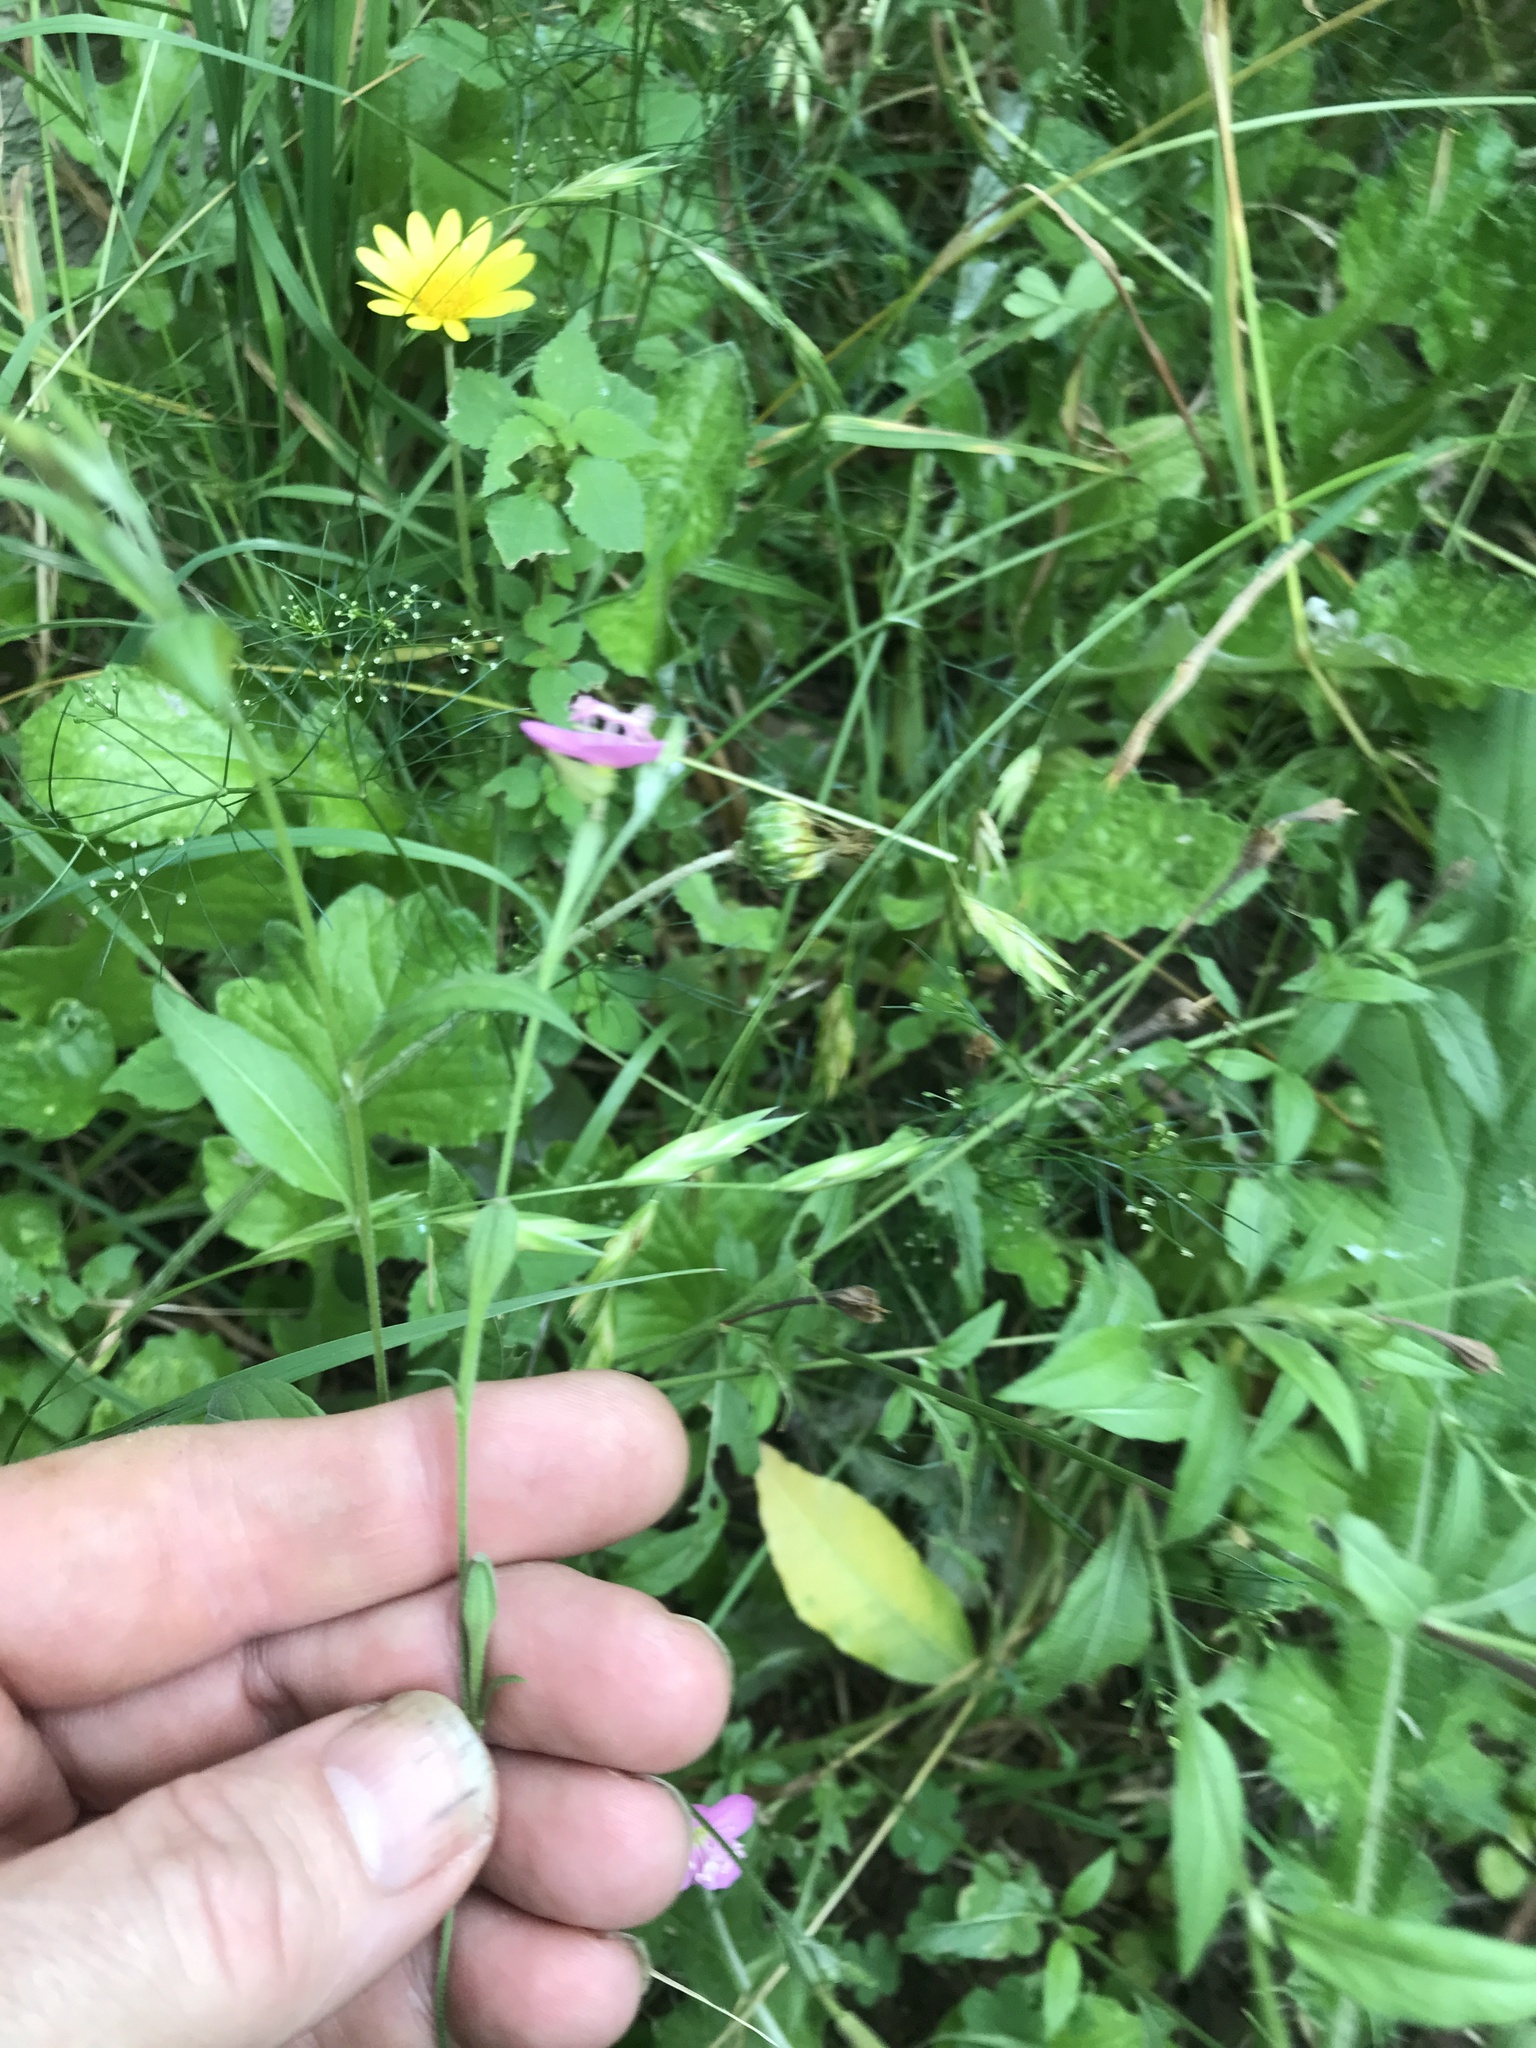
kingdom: Plantae
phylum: Tracheophyta
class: Magnoliopsida
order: Myrtales
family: Onagraceae
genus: Oenothera
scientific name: Oenothera rosea
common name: Rosy evening-primrose
